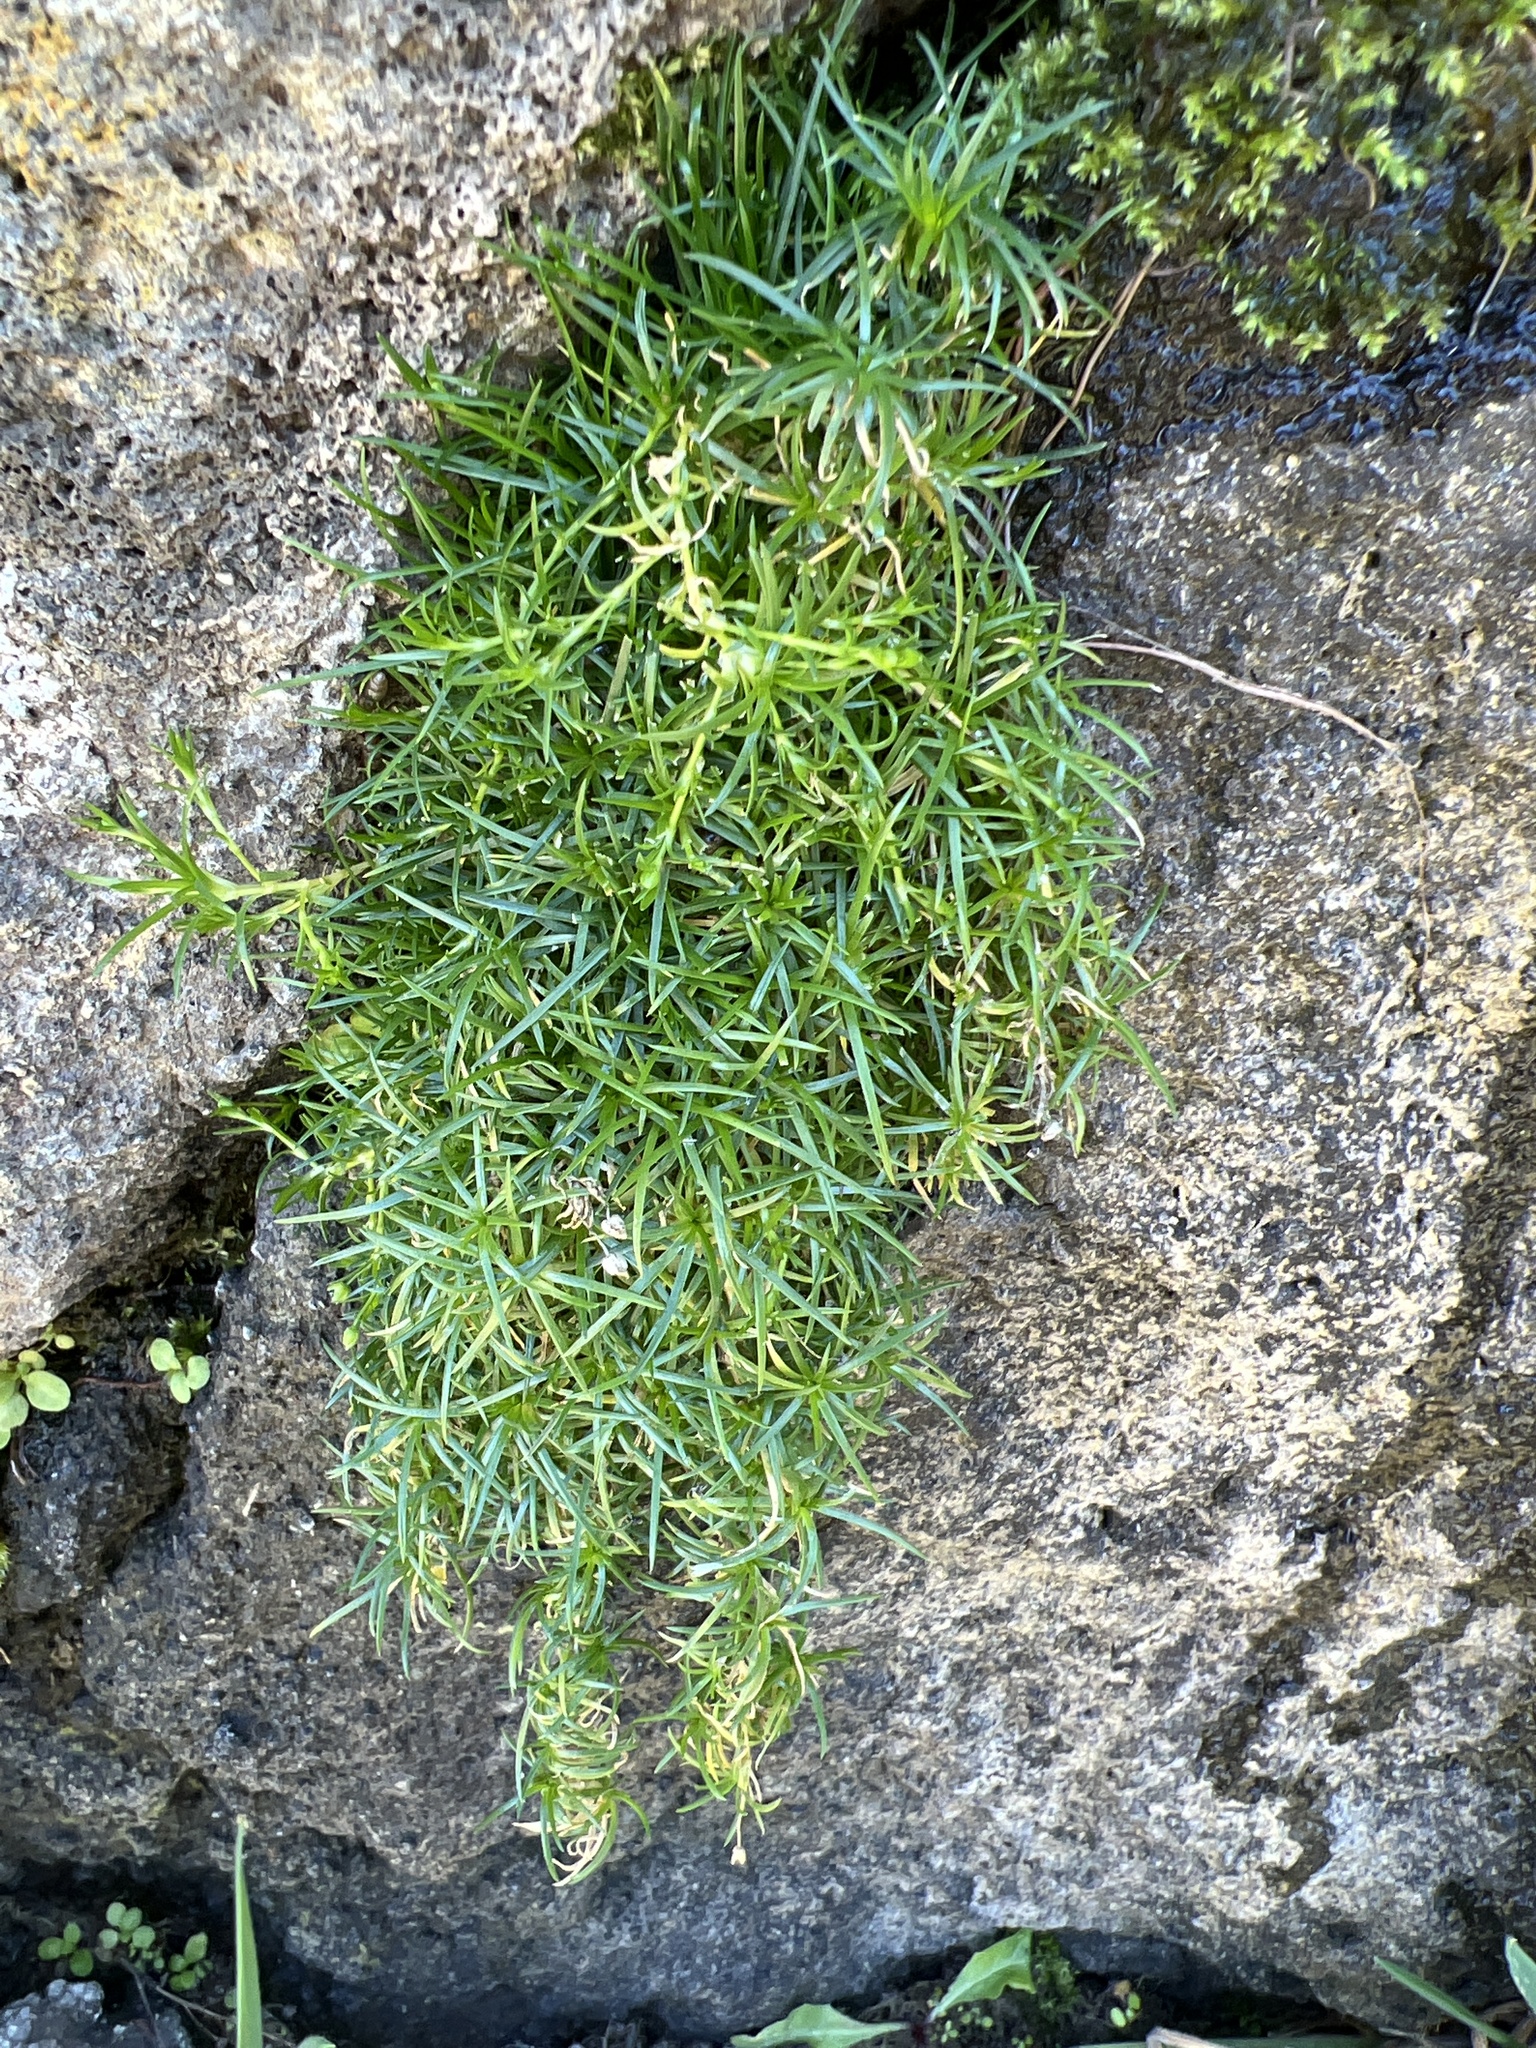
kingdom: Plantae
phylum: Tracheophyta
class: Magnoliopsida
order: Caryophyllales
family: Caryophyllaceae
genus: Sagina
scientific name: Sagina procumbens
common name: Procumbent pearlwort
